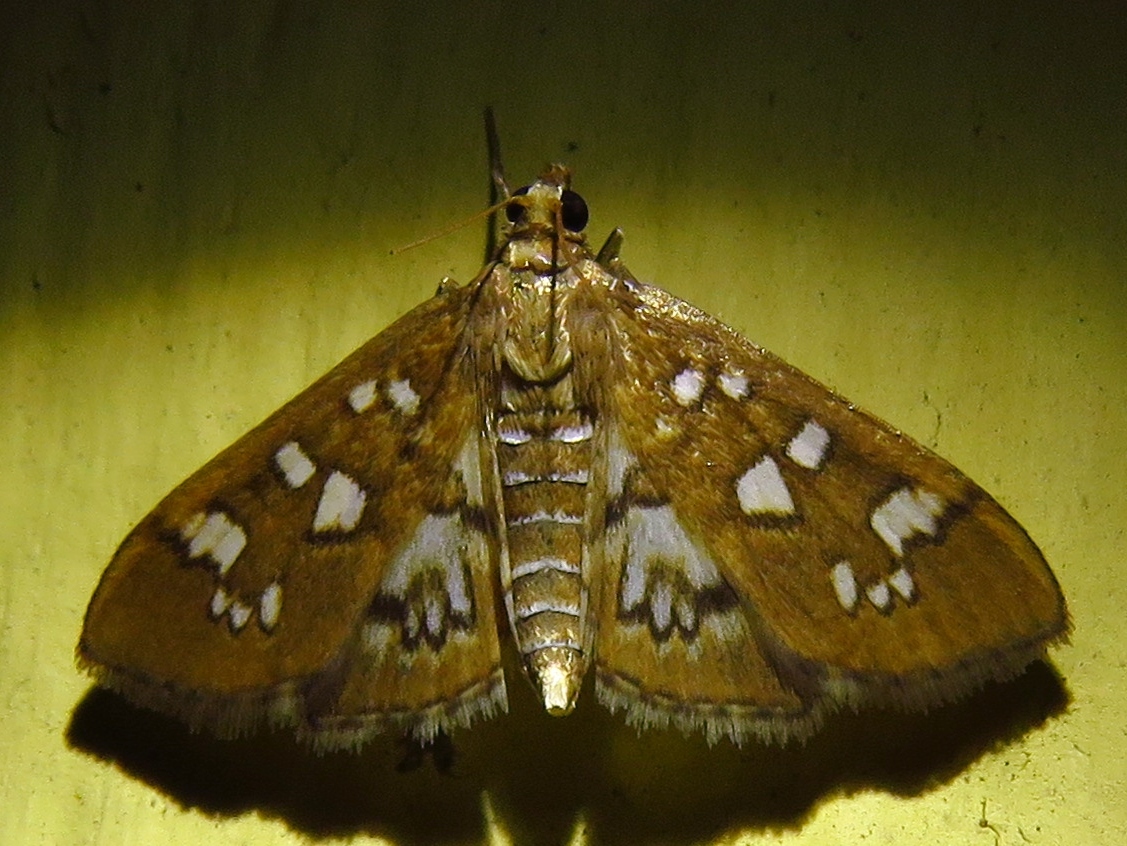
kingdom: Animalia
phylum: Arthropoda
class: Insecta
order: Lepidoptera
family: Crambidae
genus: Samea
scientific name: Samea baccatalis
